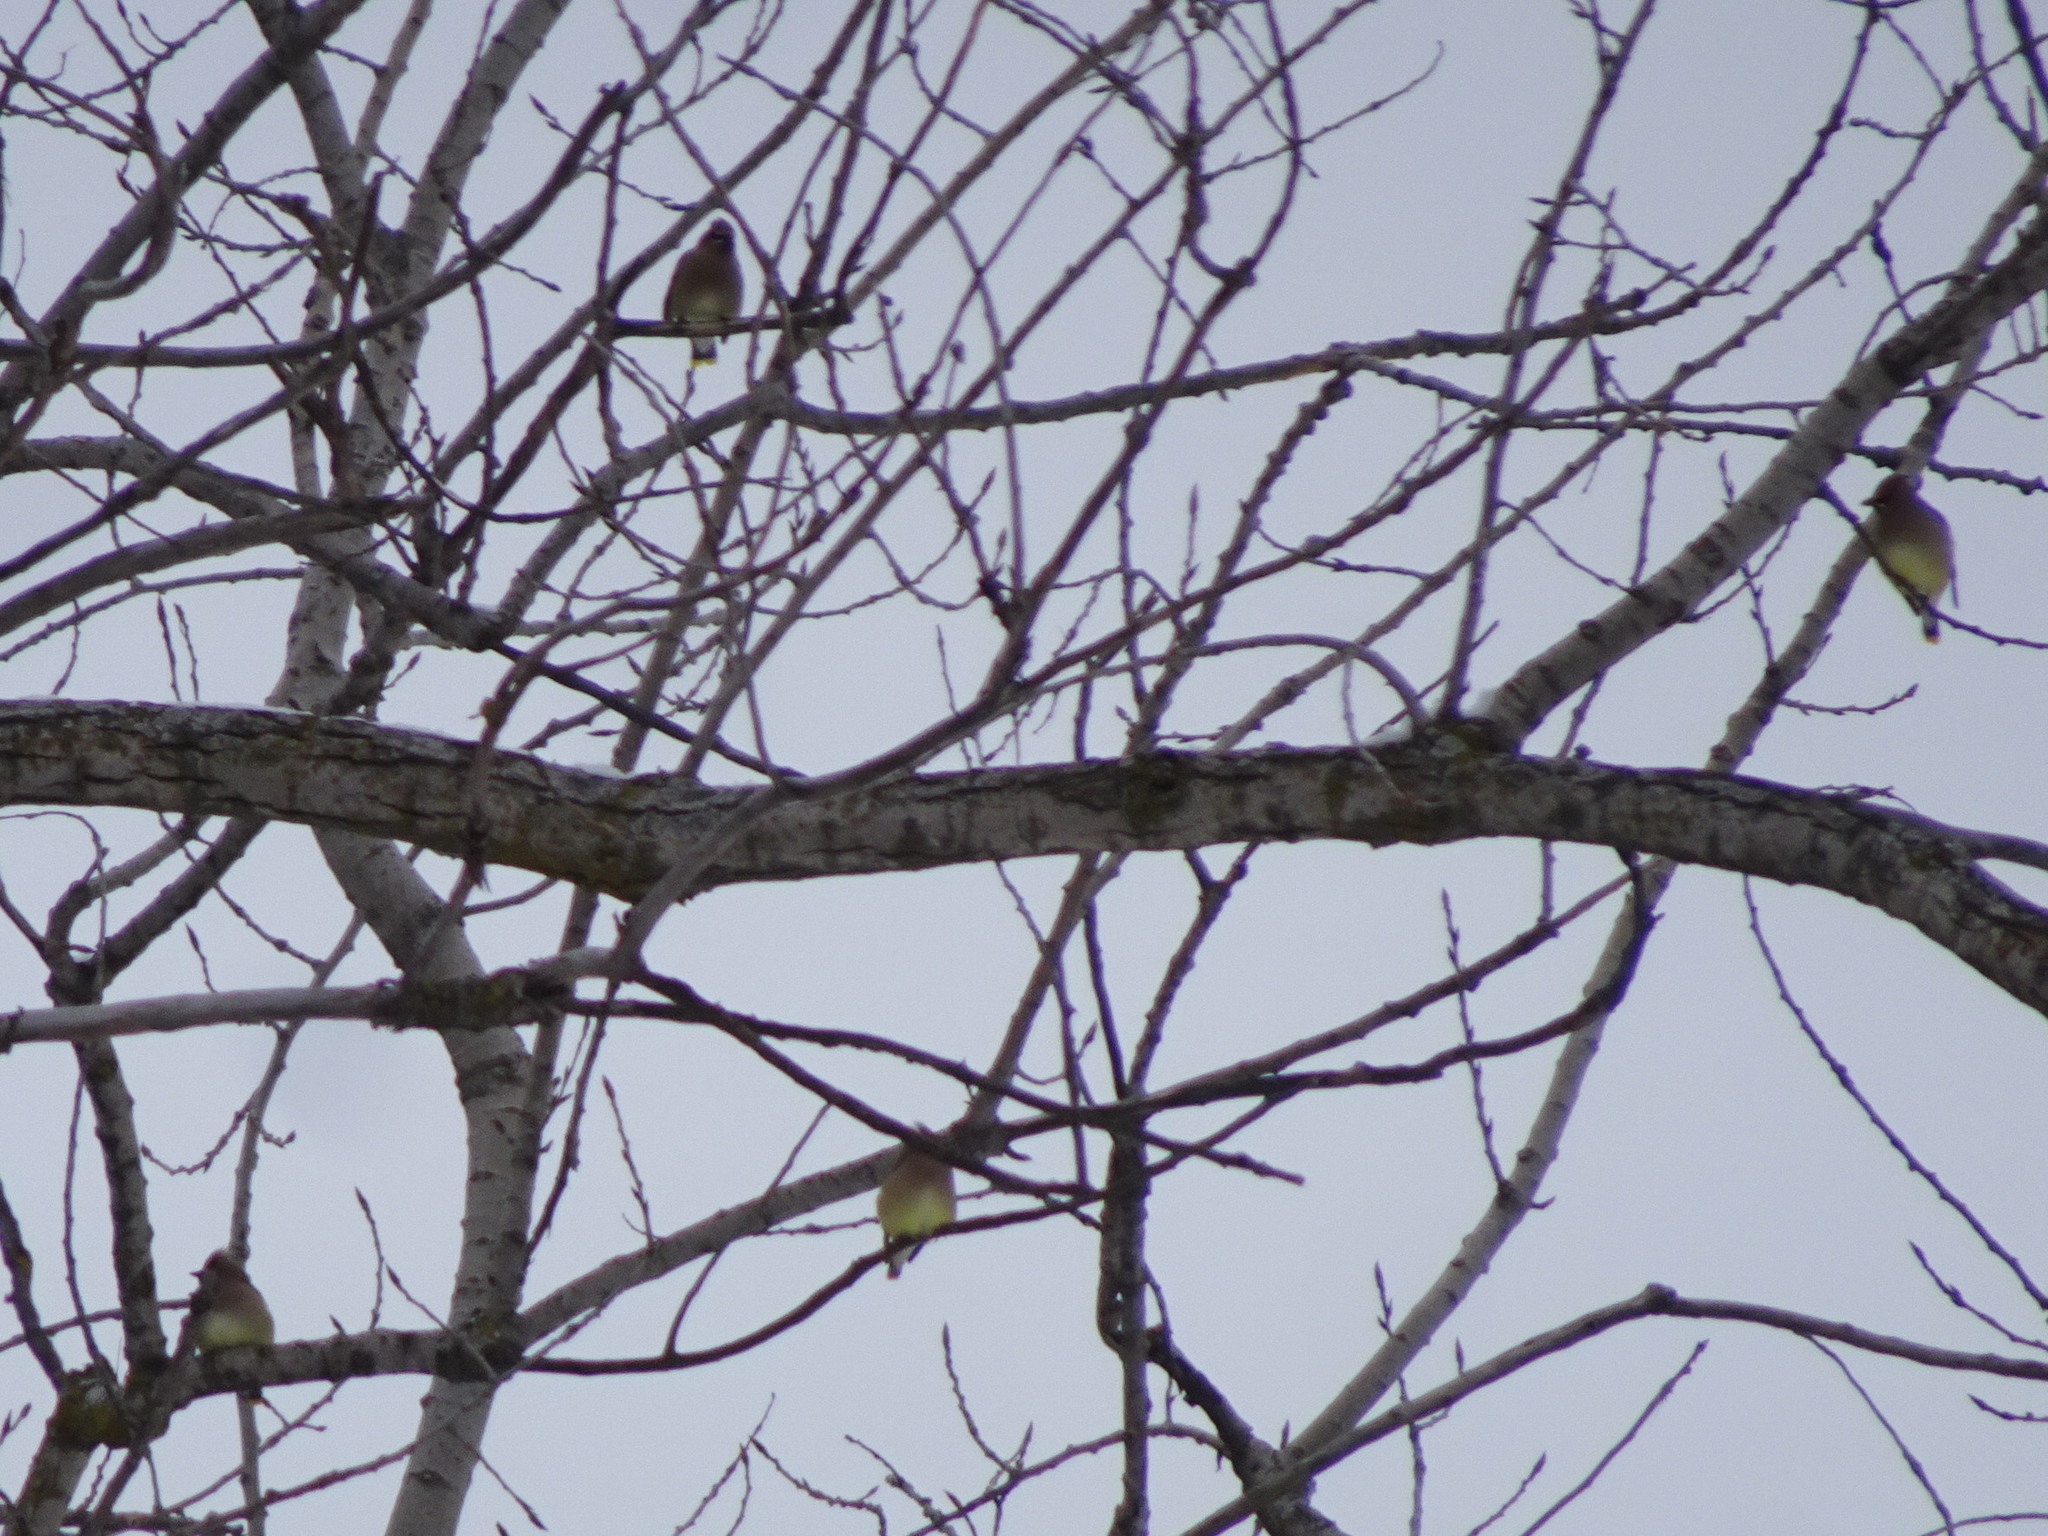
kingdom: Animalia
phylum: Chordata
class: Aves
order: Passeriformes
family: Bombycillidae
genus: Bombycilla
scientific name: Bombycilla cedrorum
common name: Cedar waxwing
